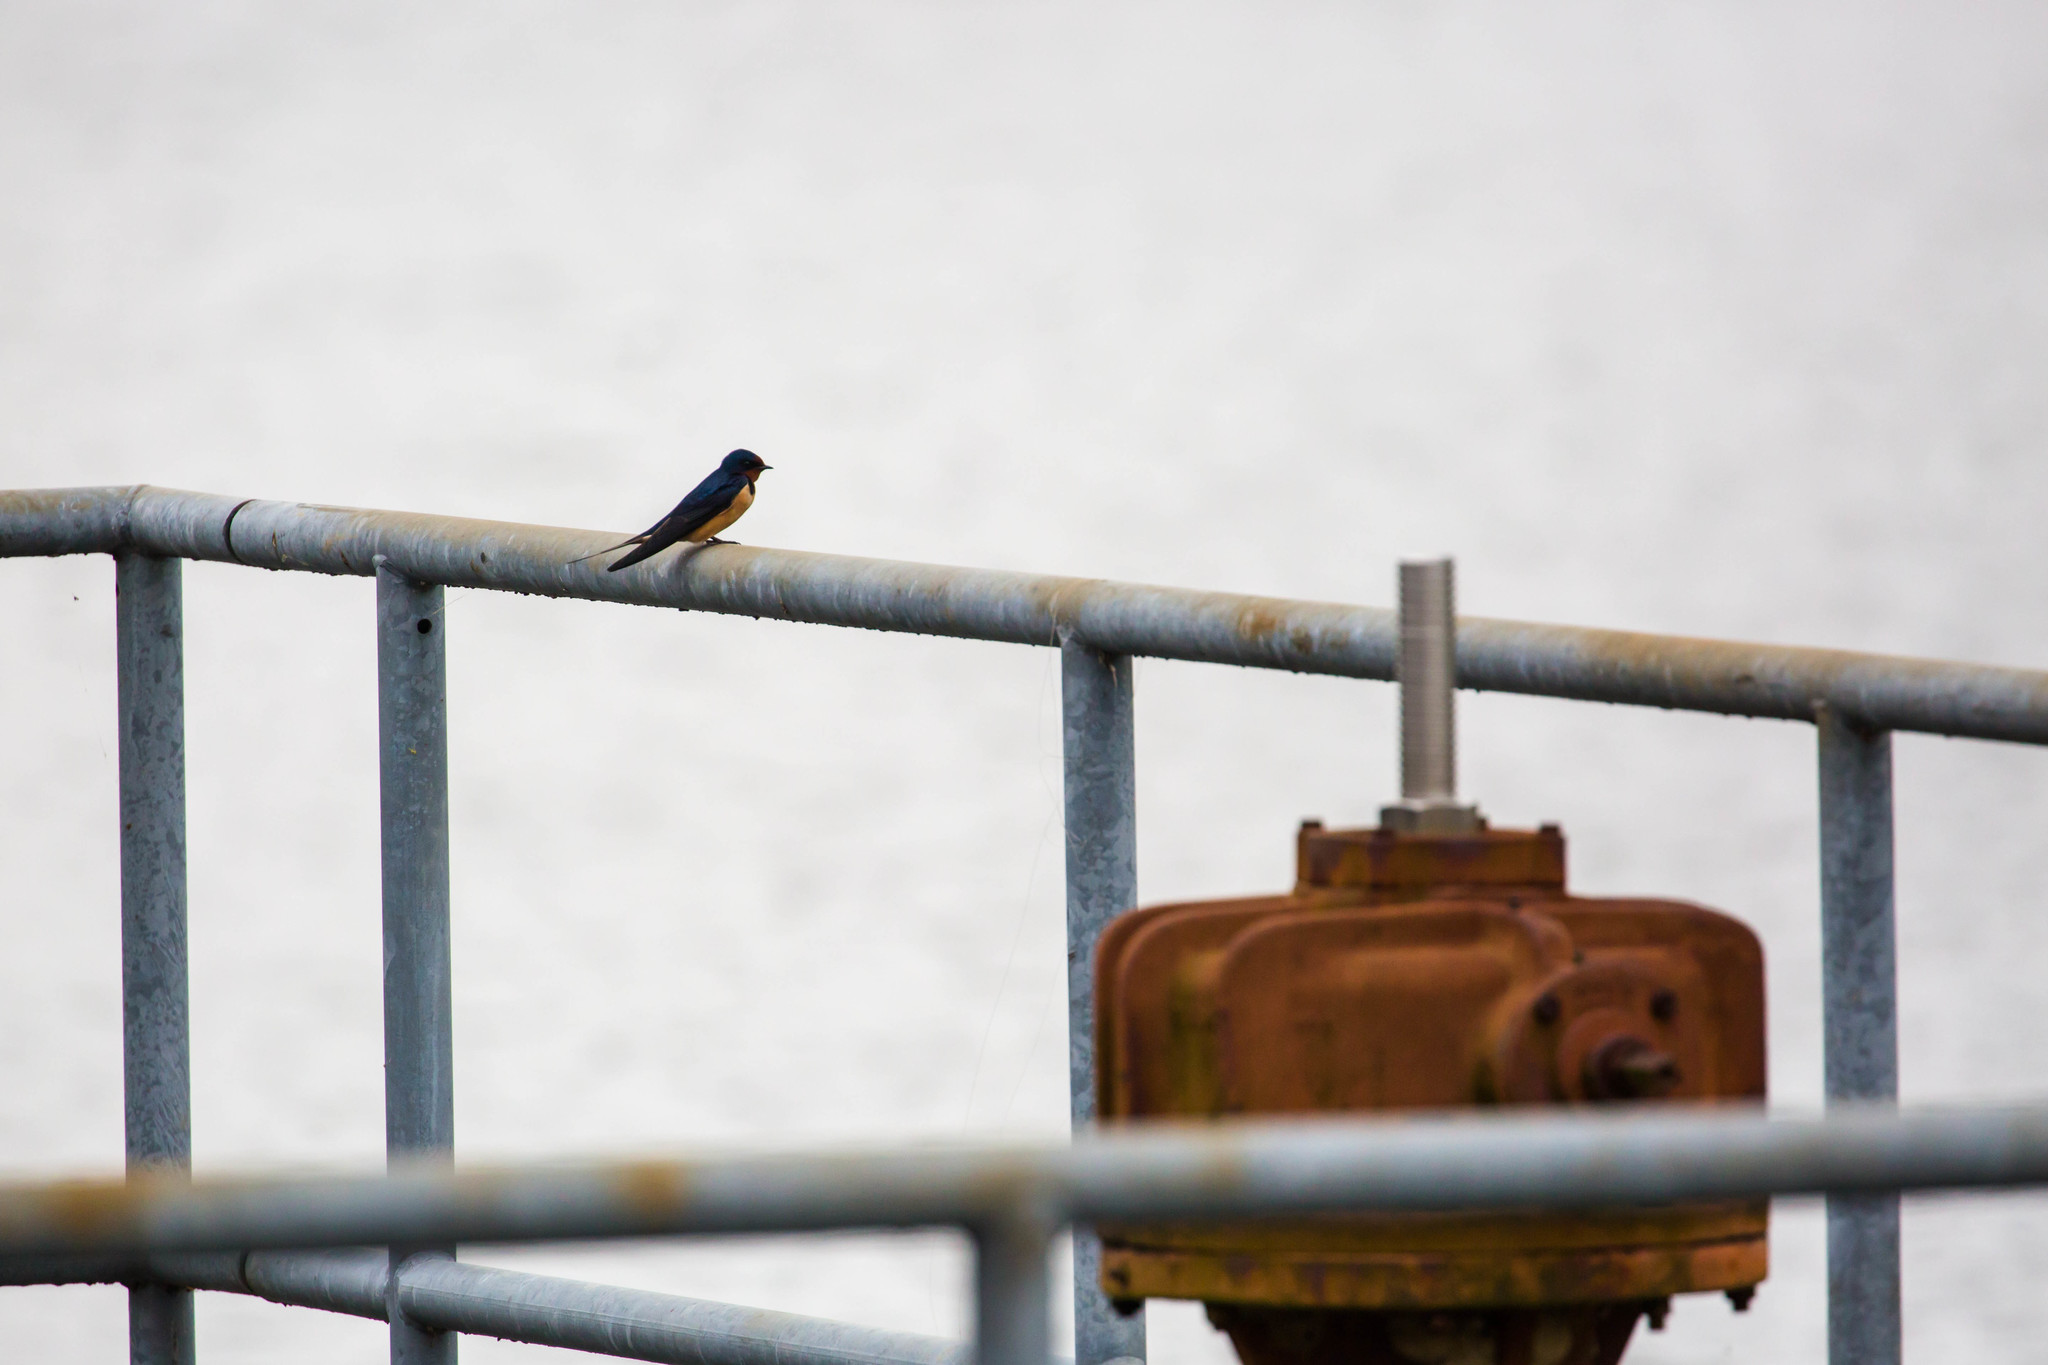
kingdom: Animalia
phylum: Chordata
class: Aves
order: Passeriformes
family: Hirundinidae
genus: Hirundo
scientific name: Hirundo rustica
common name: Barn swallow
